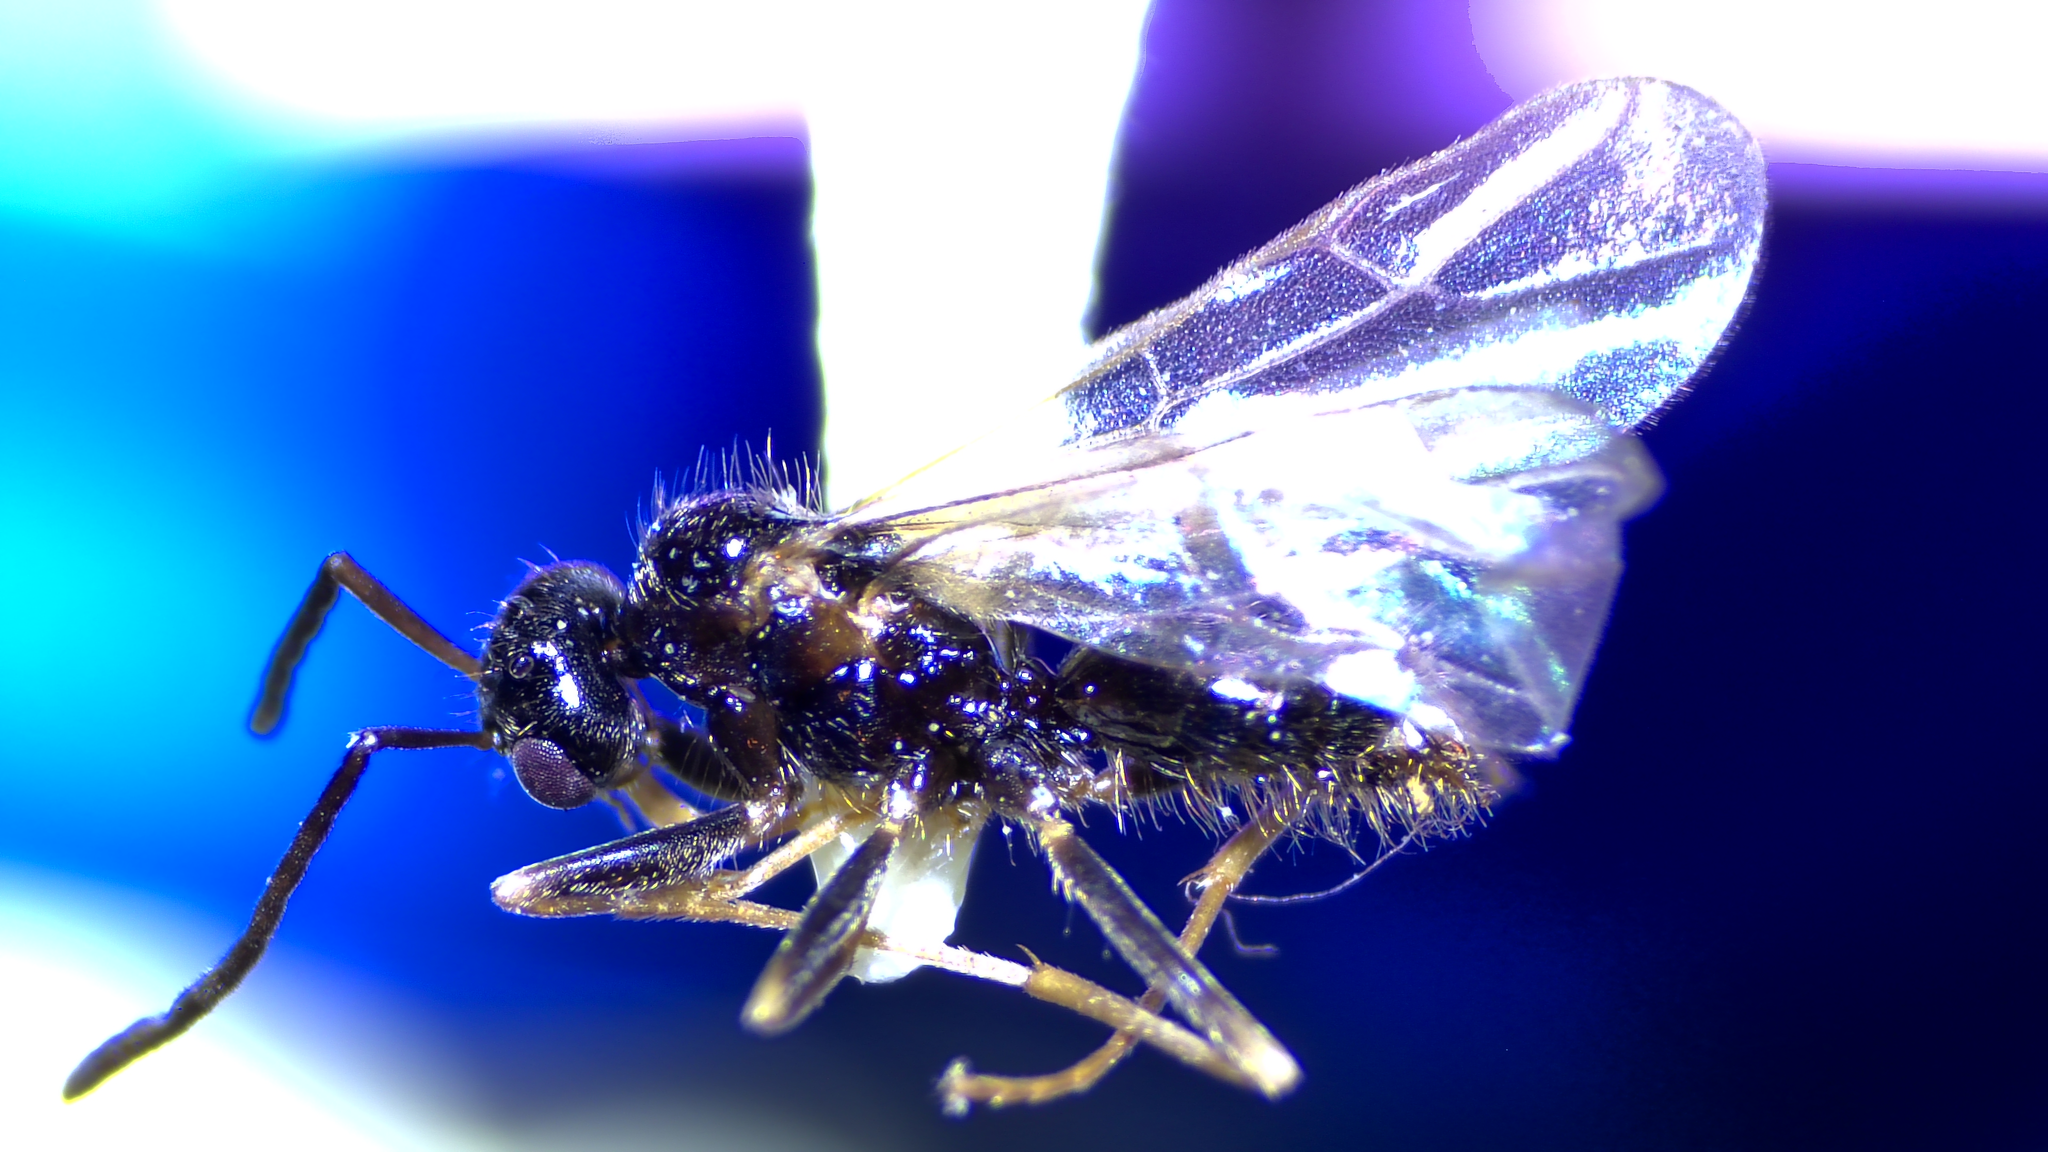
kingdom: Animalia
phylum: Arthropoda
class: Insecta
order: Hymenoptera
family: Formicidae
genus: Prenolepis
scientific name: Prenolepis imparis
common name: Small honey ant
